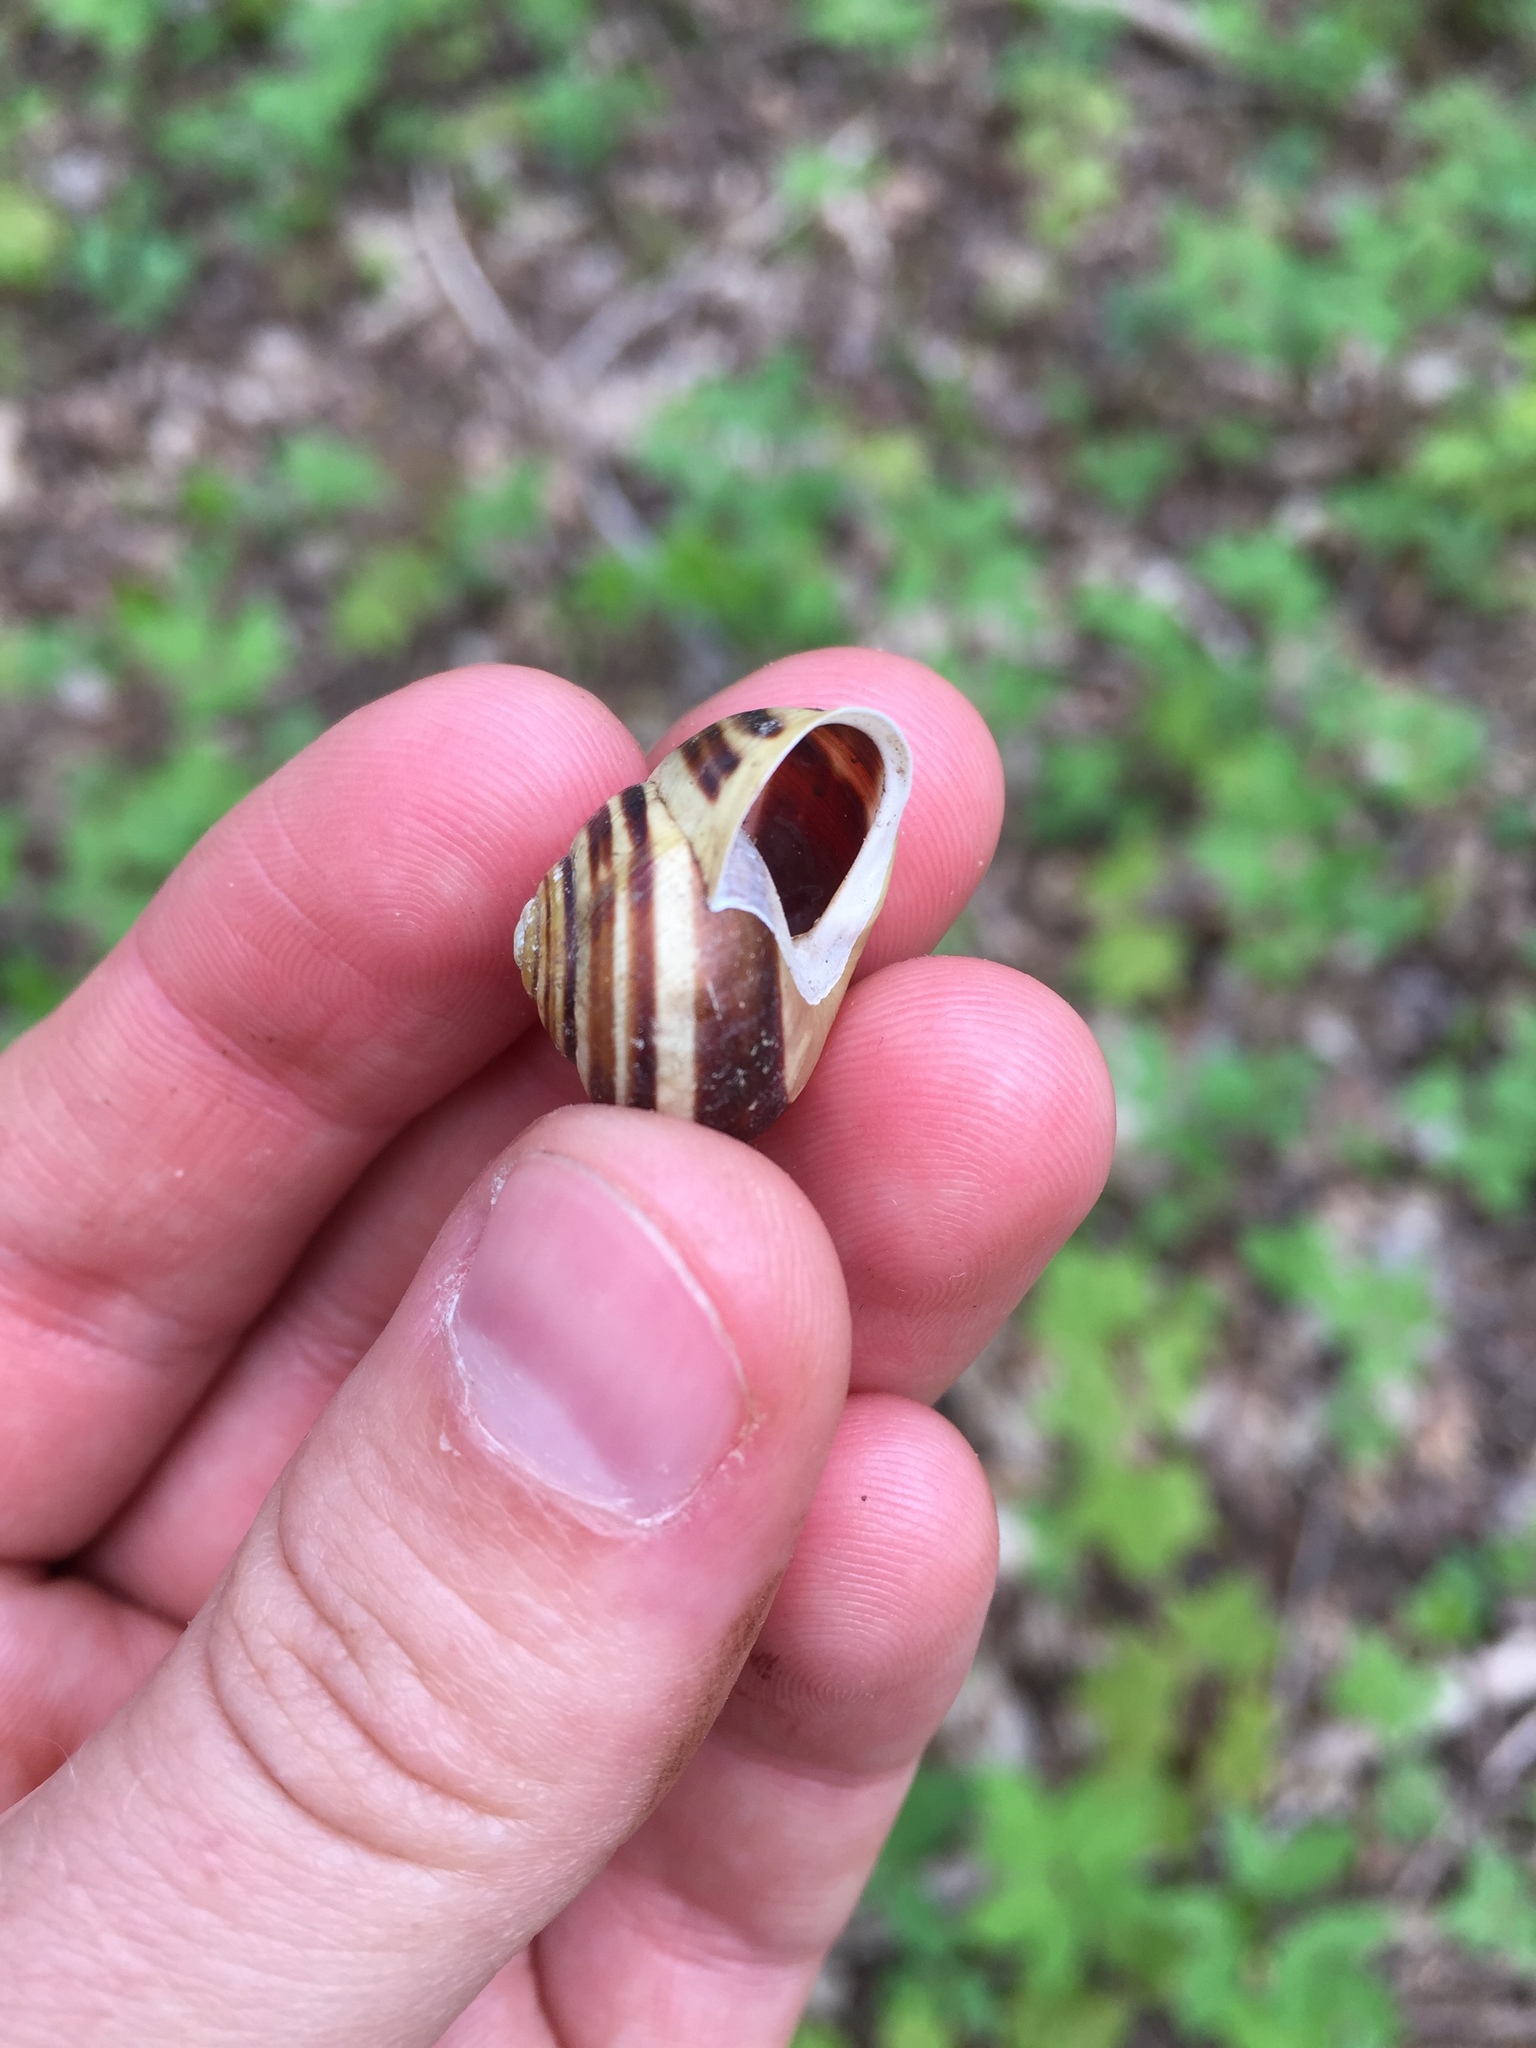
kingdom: Animalia
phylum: Mollusca
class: Gastropoda
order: Stylommatophora
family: Helicidae
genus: Cepaea
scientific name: Cepaea hortensis
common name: White-lip gardensnail
